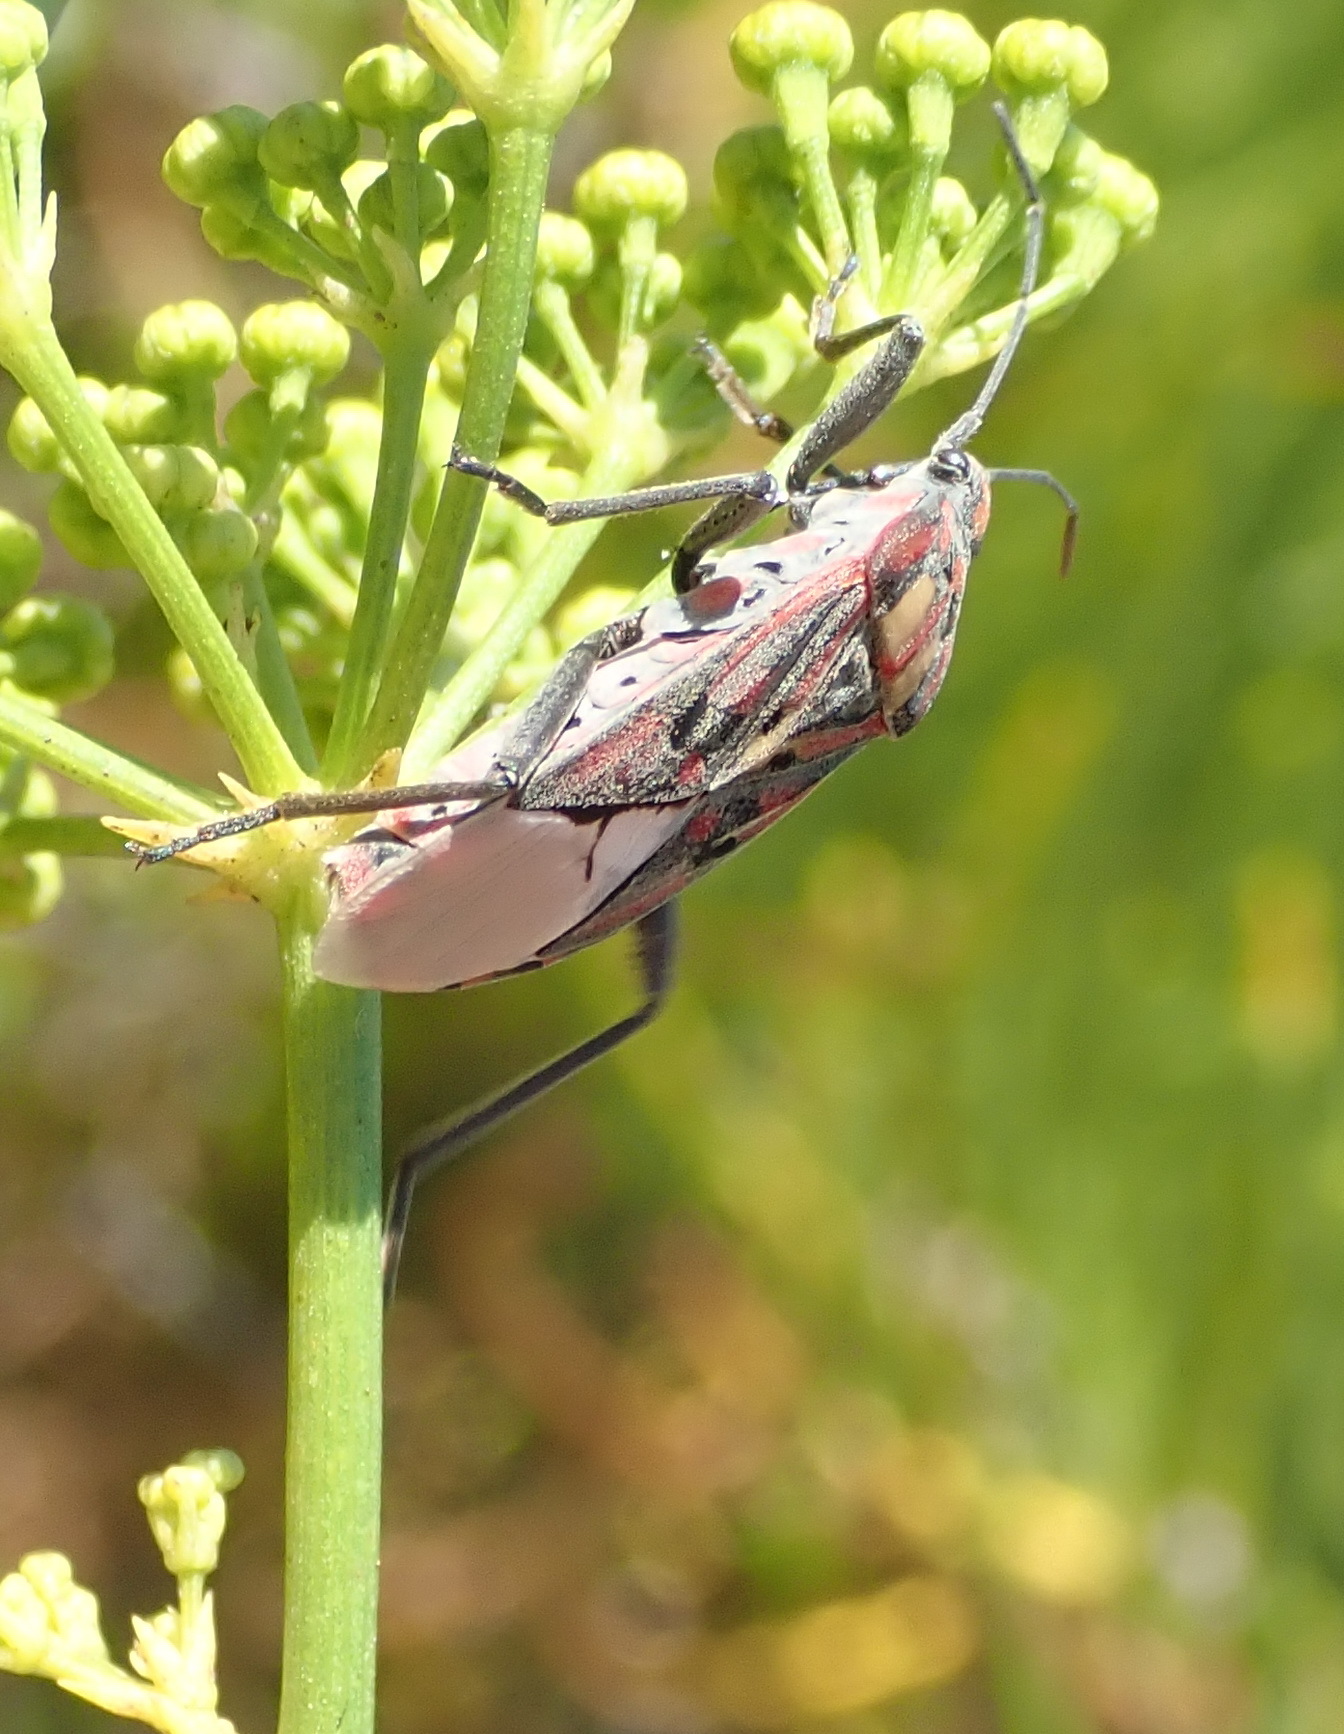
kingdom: Animalia
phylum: Arthropoda
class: Insecta
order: Hemiptera
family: Lygaeidae
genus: Spilostethus
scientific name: Spilostethus pandurus
